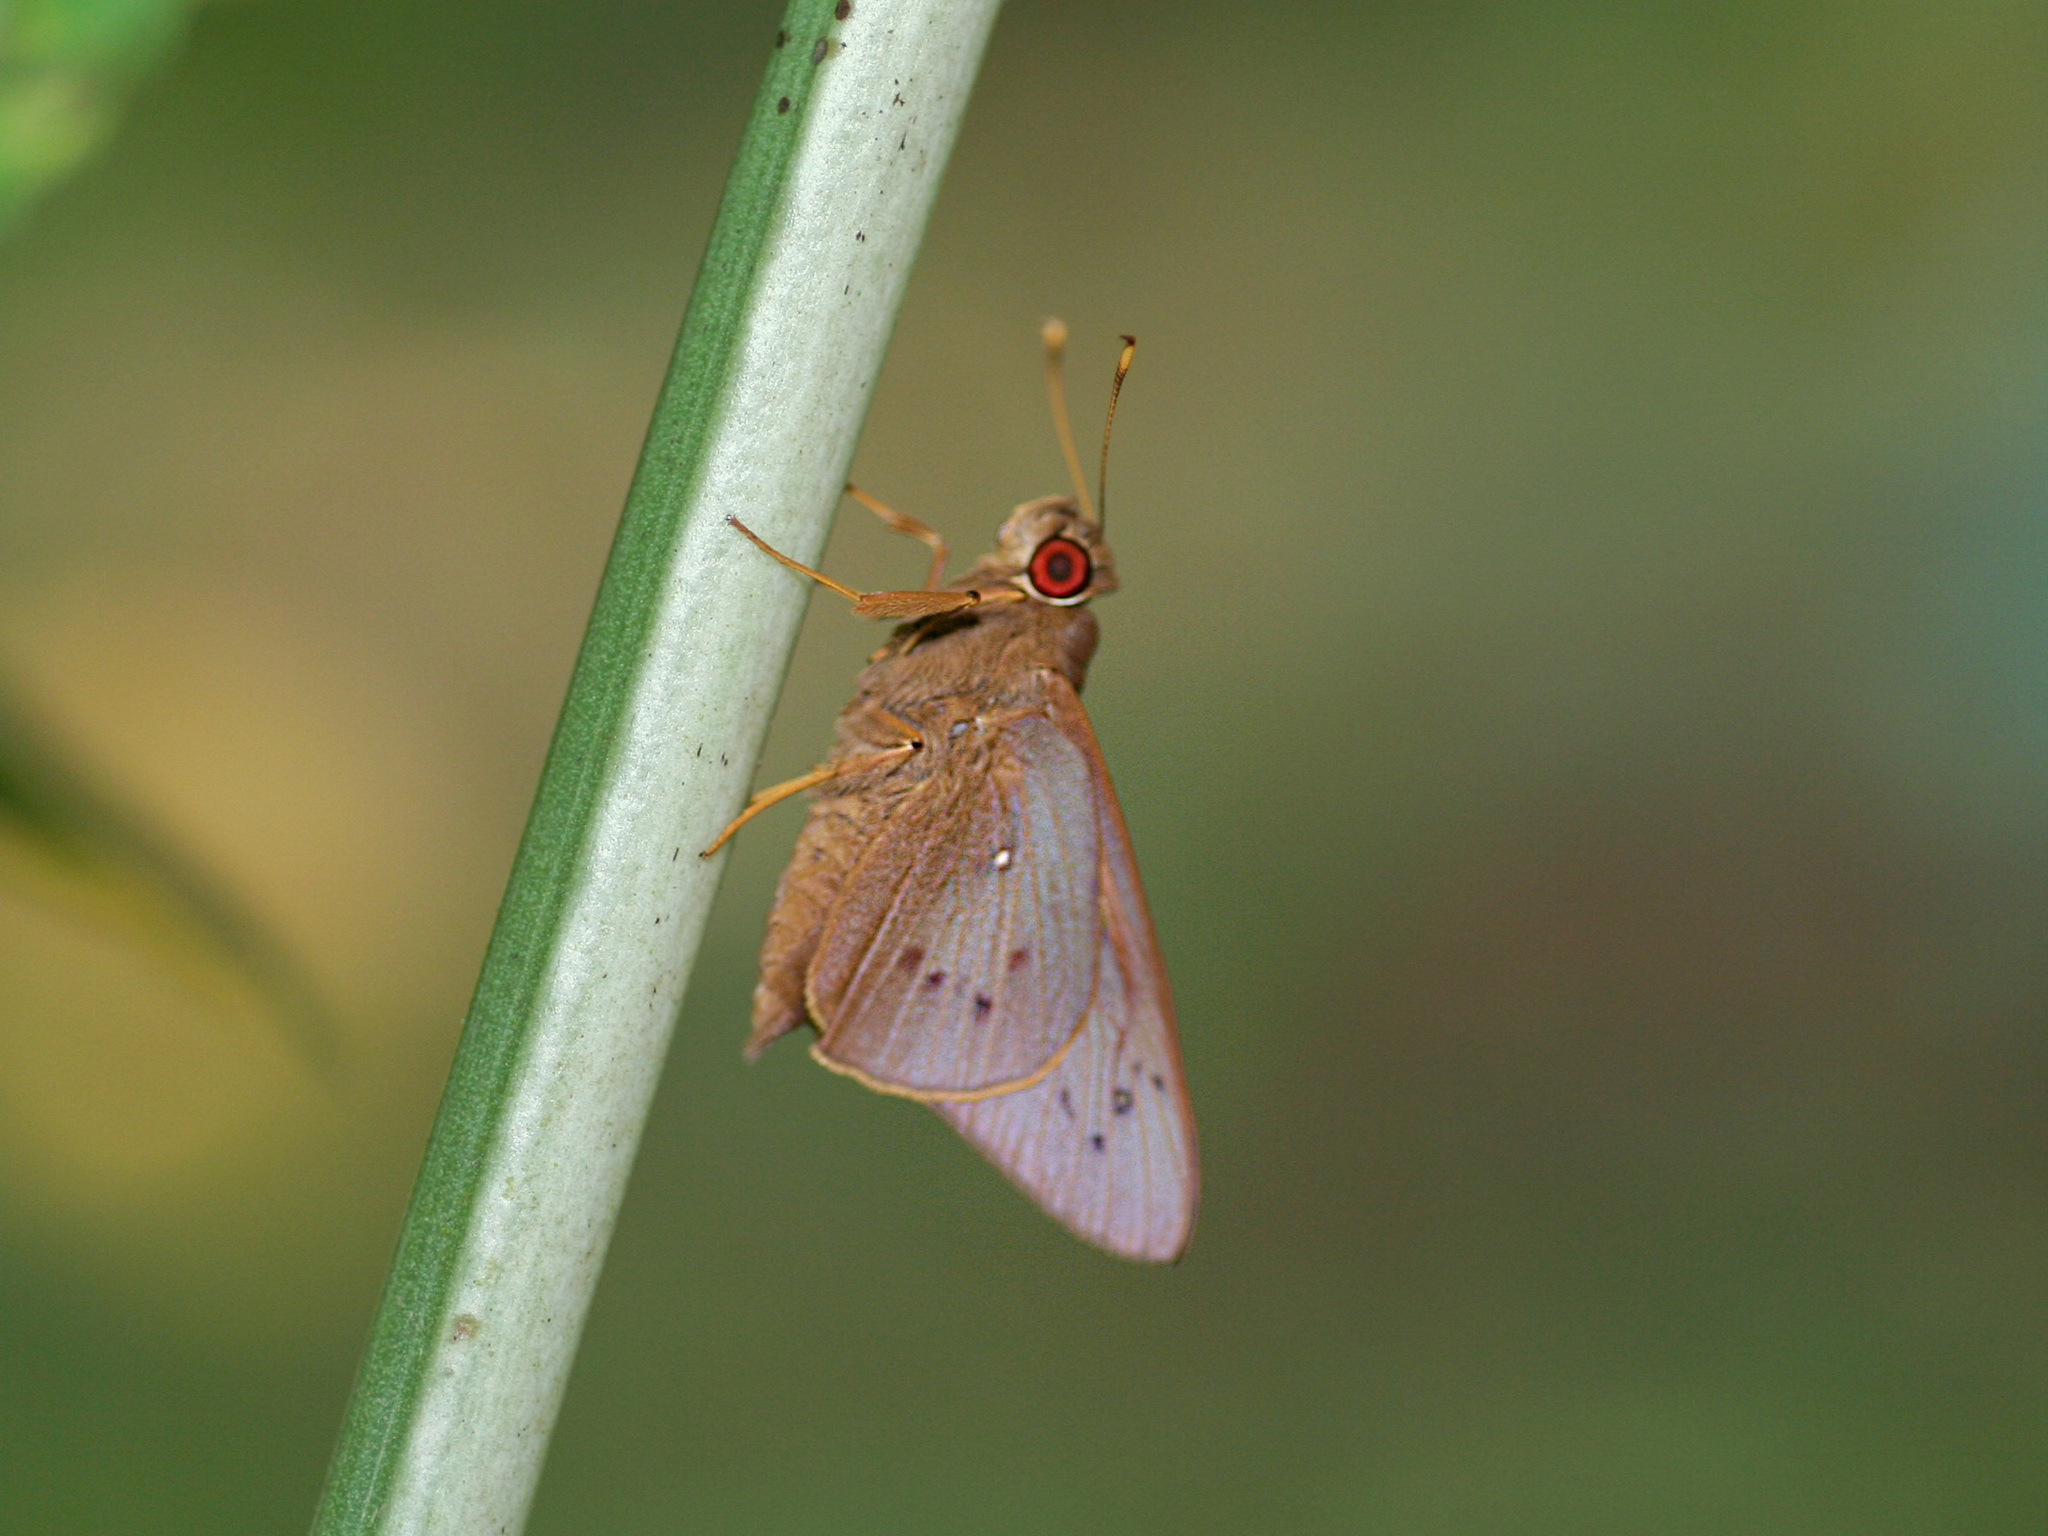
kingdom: Animalia
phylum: Arthropoda
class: Insecta
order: Lepidoptera
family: Hesperiidae
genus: Hidari
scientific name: Hidari irava
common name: Coconut skipper
